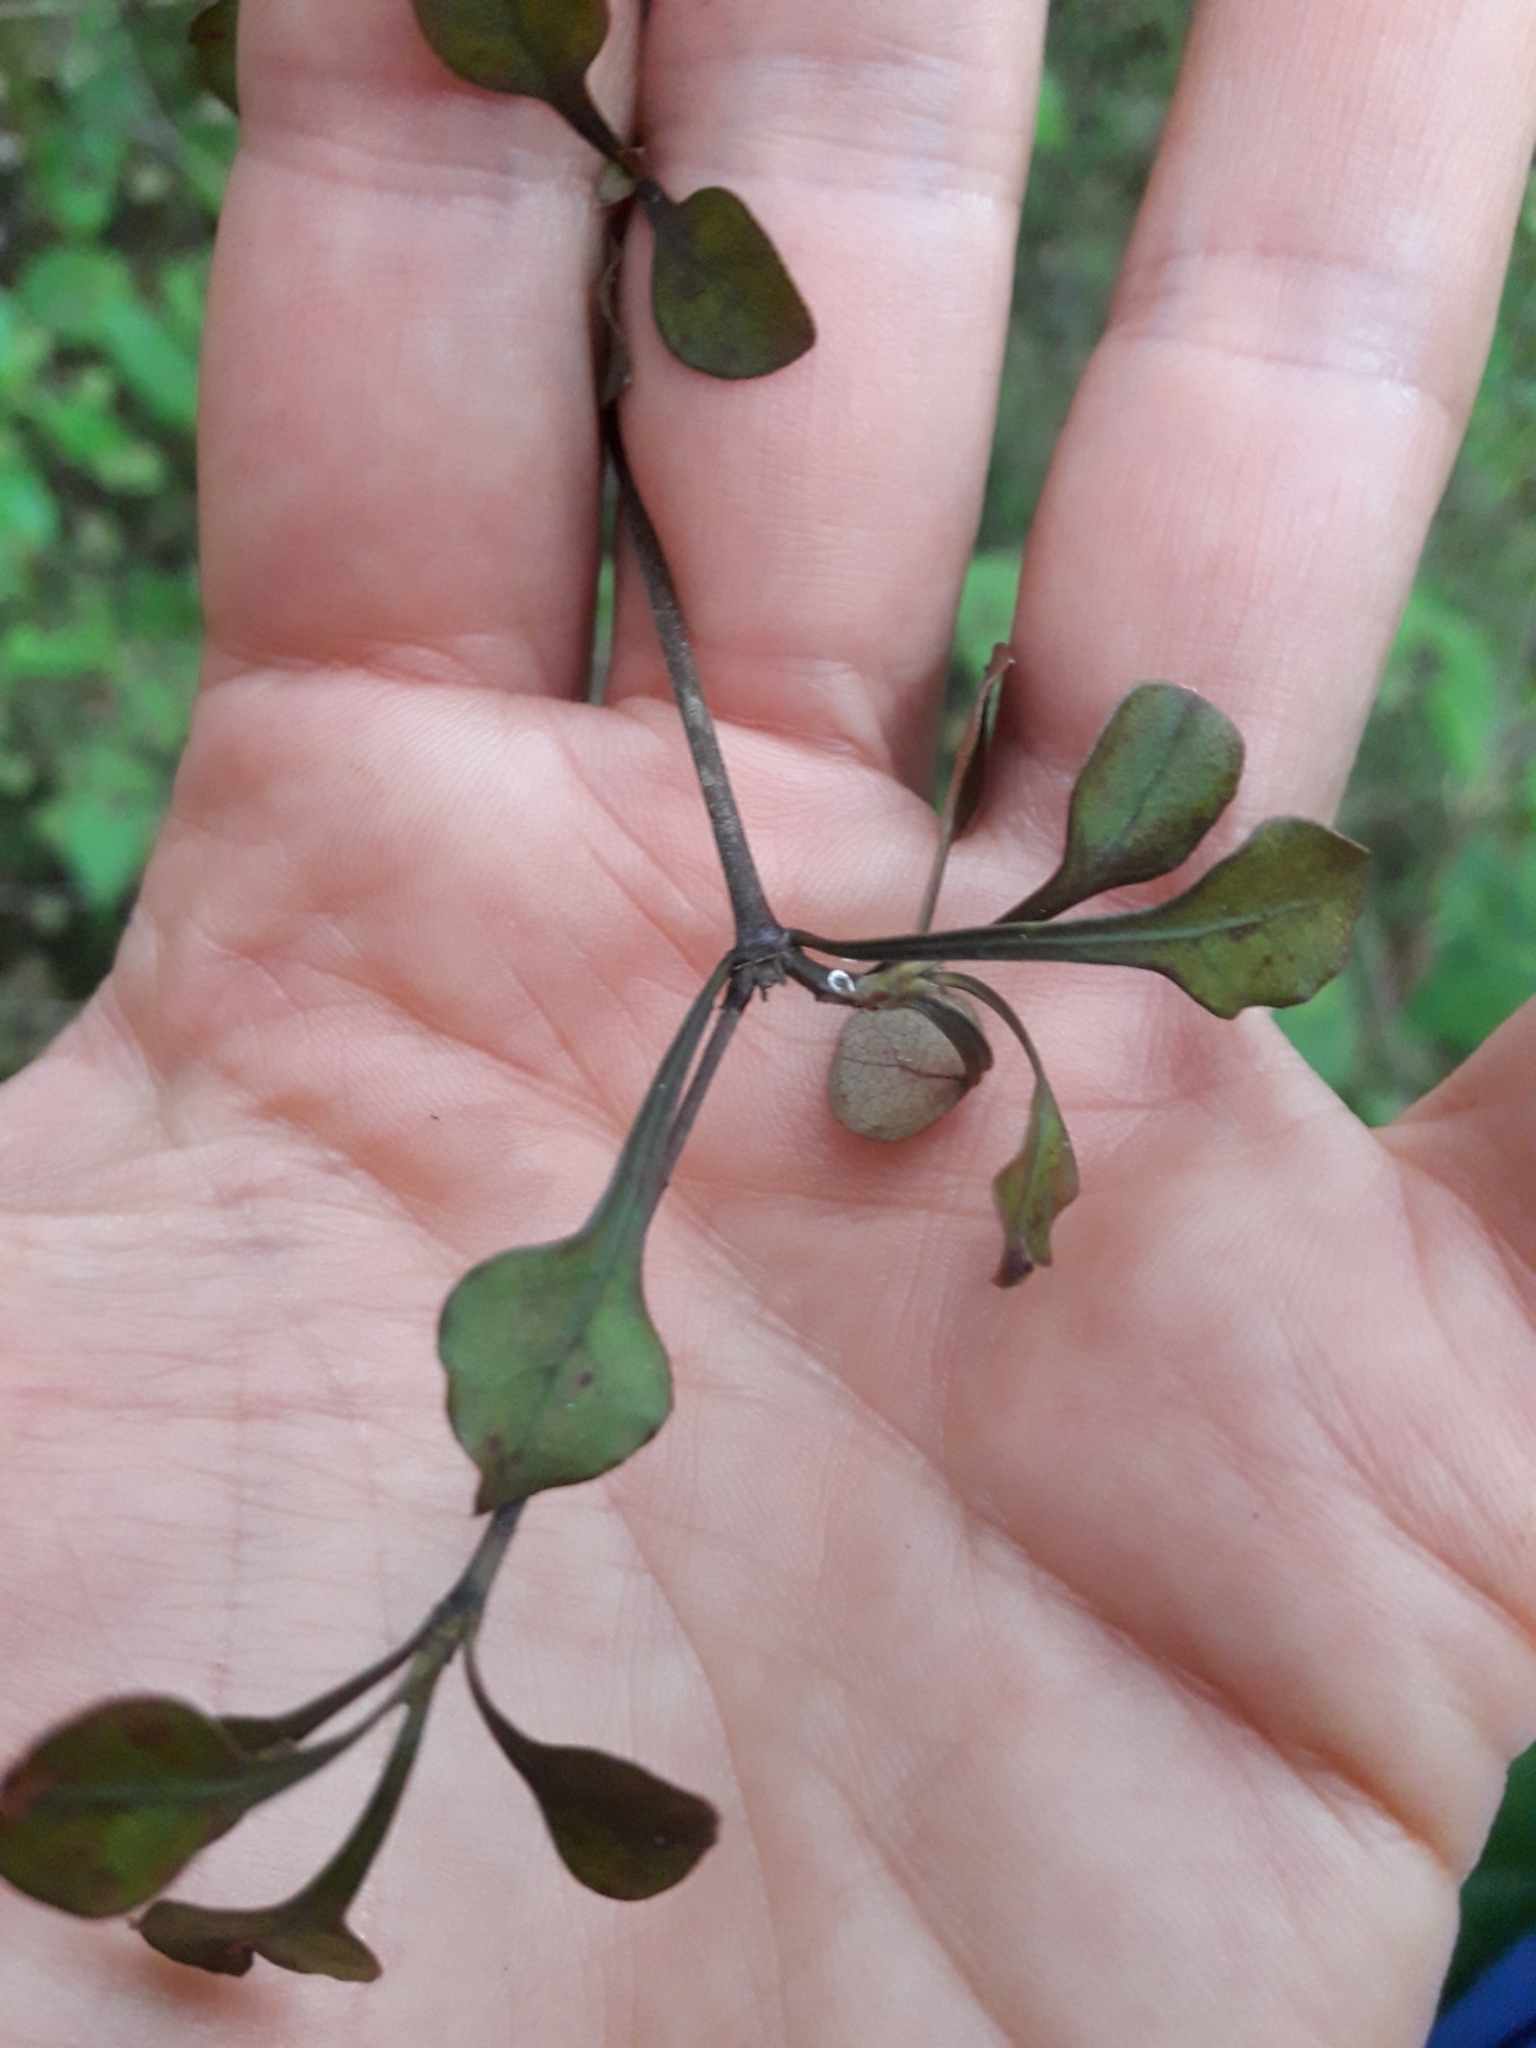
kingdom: Plantae
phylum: Tracheophyta
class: Magnoliopsida
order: Gentianales
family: Rubiaceae
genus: Coprosma
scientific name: Coprosma arborea
